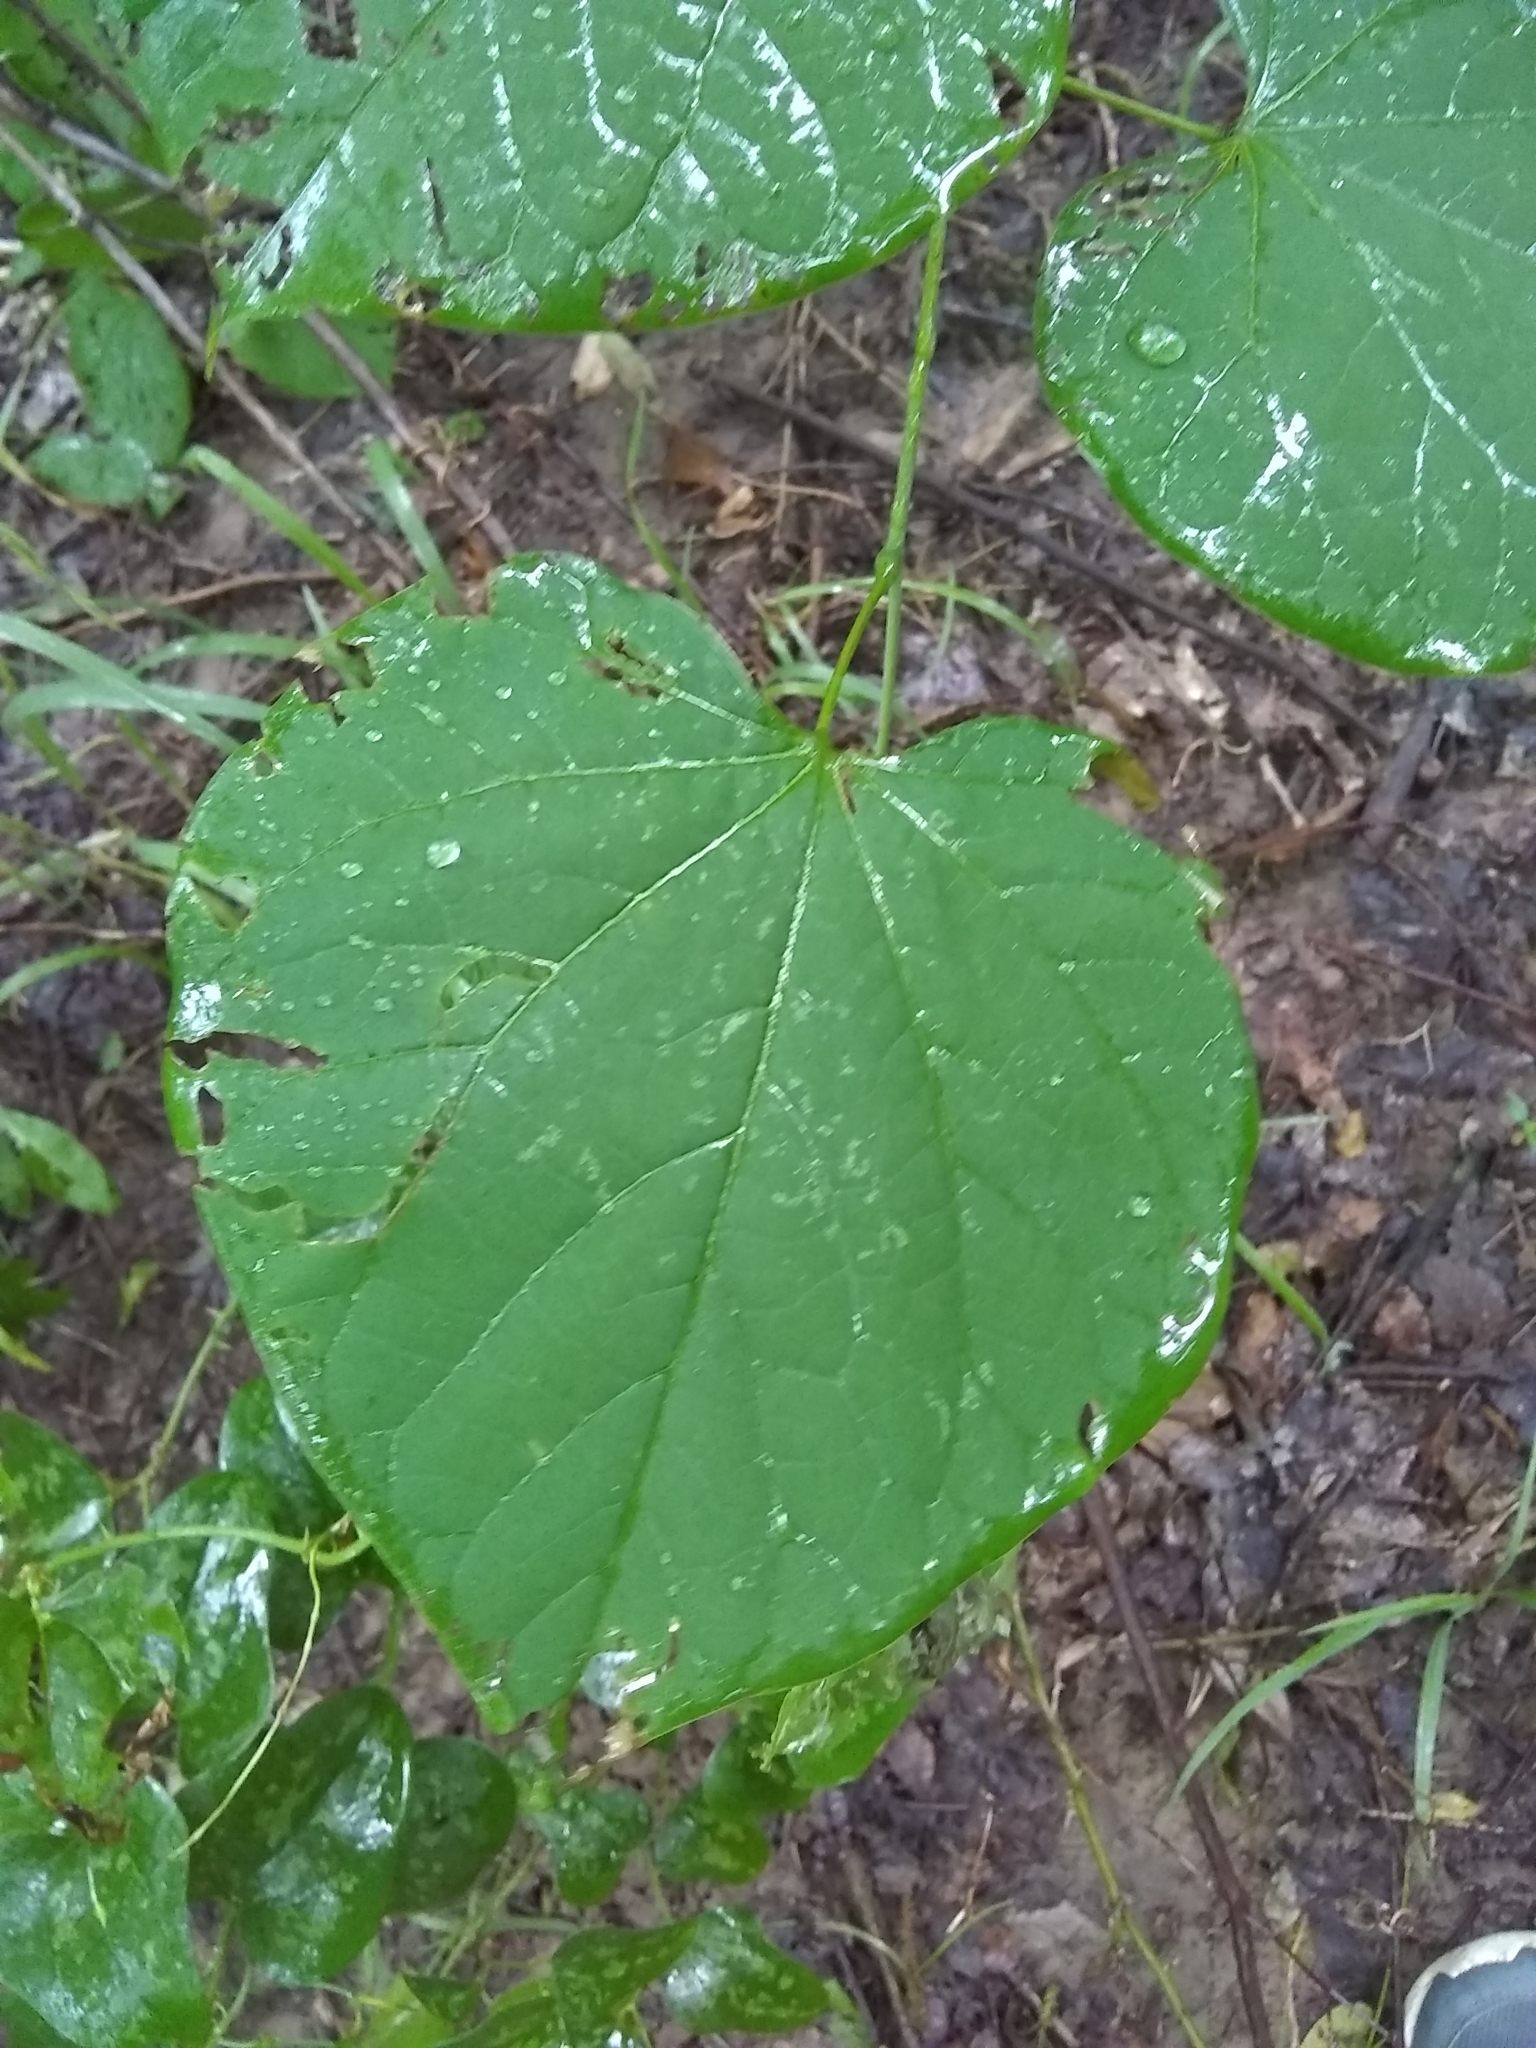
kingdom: Plantae
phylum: Tracheophyta
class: Magnoliopsida
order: Fabales
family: Fabaceae
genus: Cercis
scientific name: Cercis canadensis
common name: Eastern redbud
